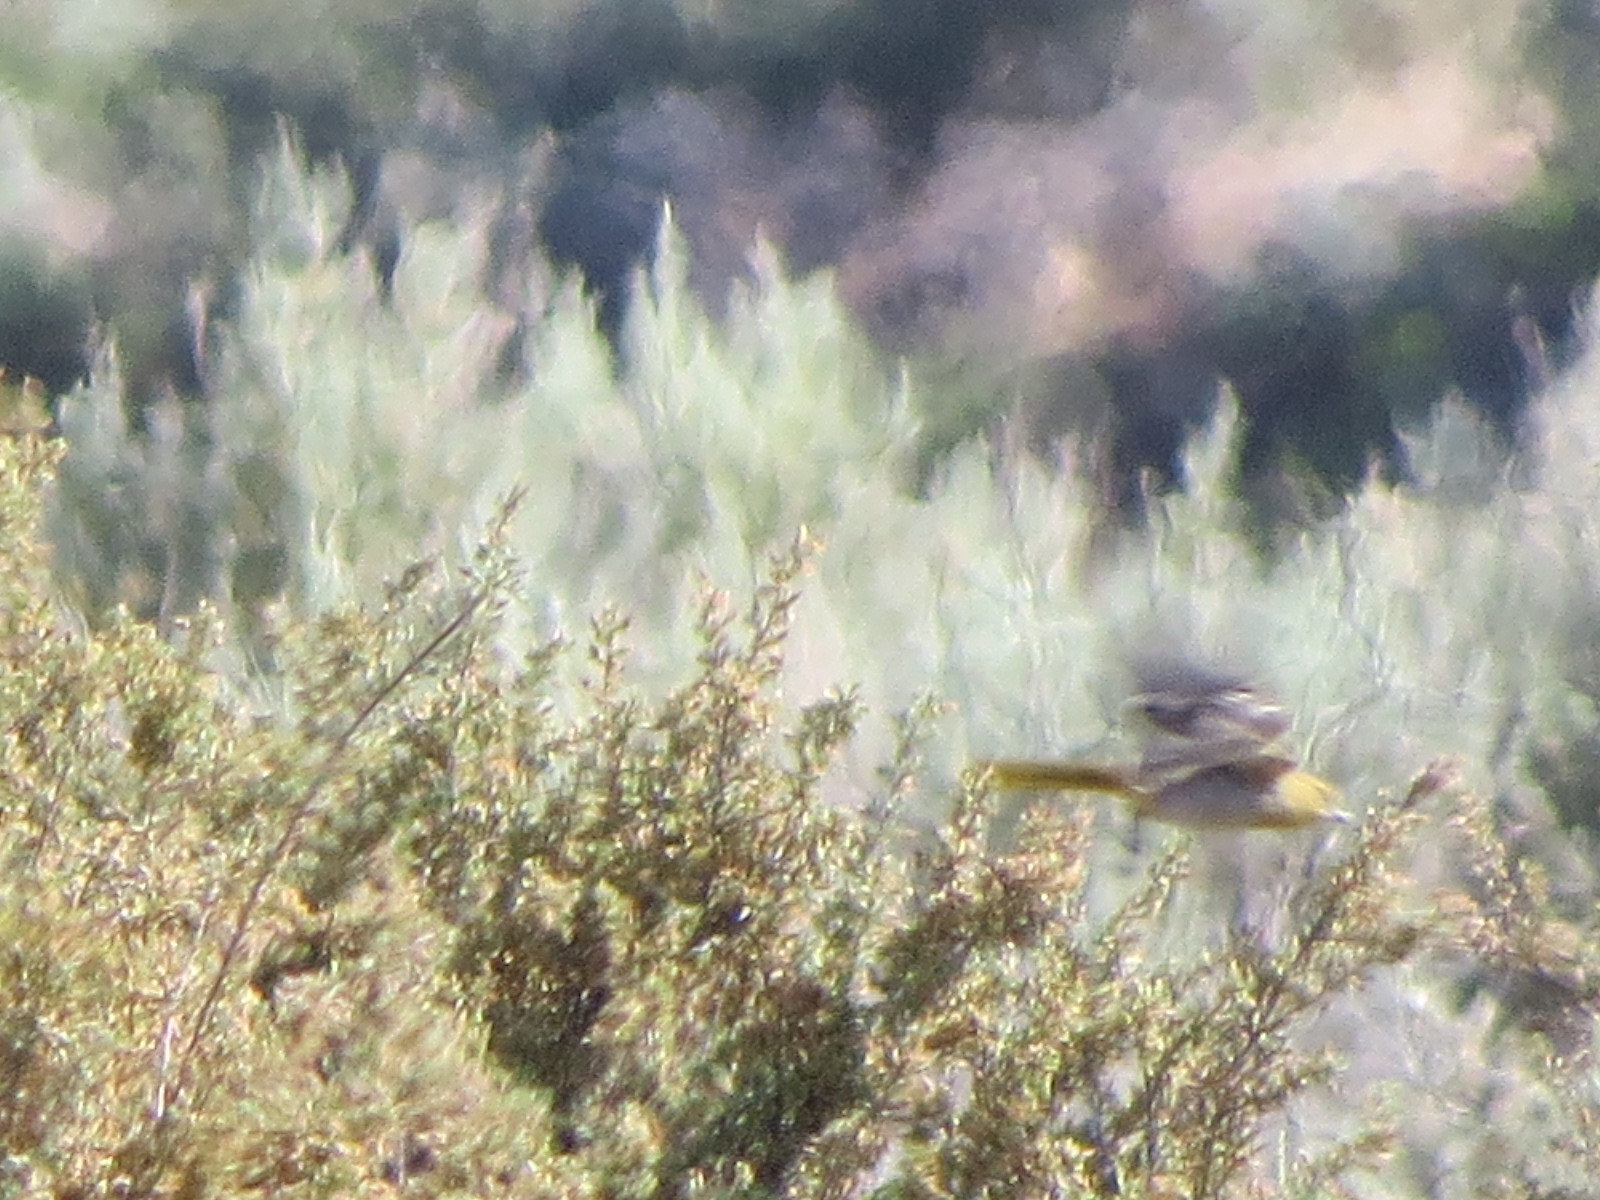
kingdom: Animalia
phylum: Chordata
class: Aves
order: Passeriformes
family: Icteridae
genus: Icterus
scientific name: Icterus bullockii
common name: Bullock's oriole
